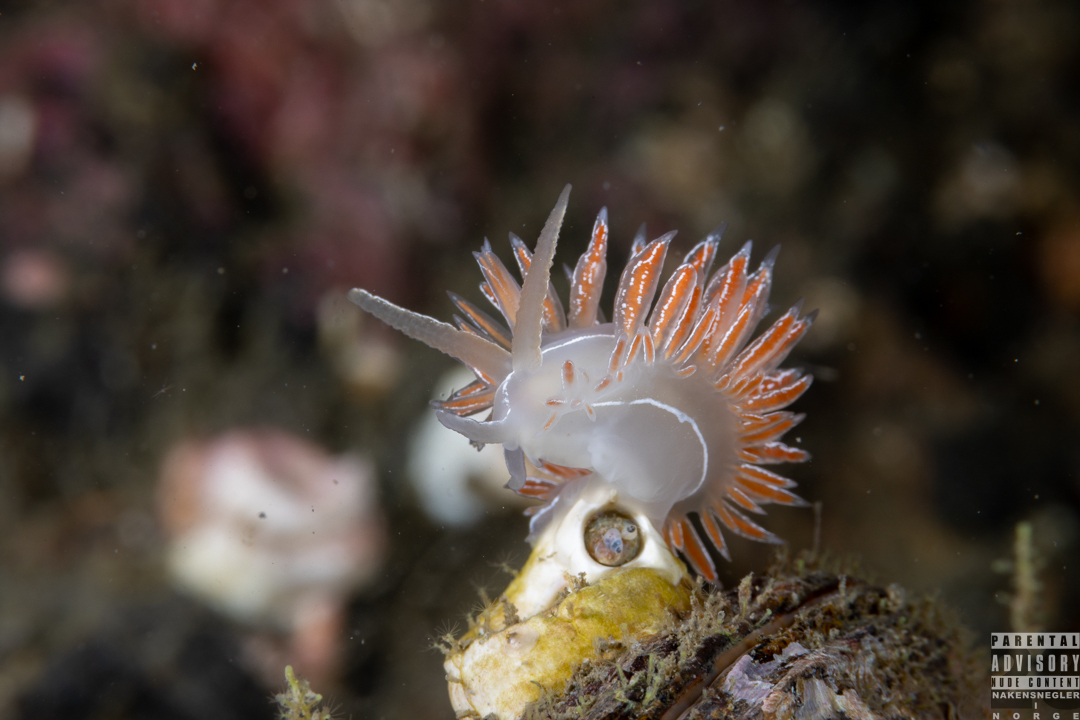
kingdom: Animalia
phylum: Mollusca
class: Gastropoda
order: Nudibranchia
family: Coryphellidae
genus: Coryphella
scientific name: Coryphella chriskaugei
